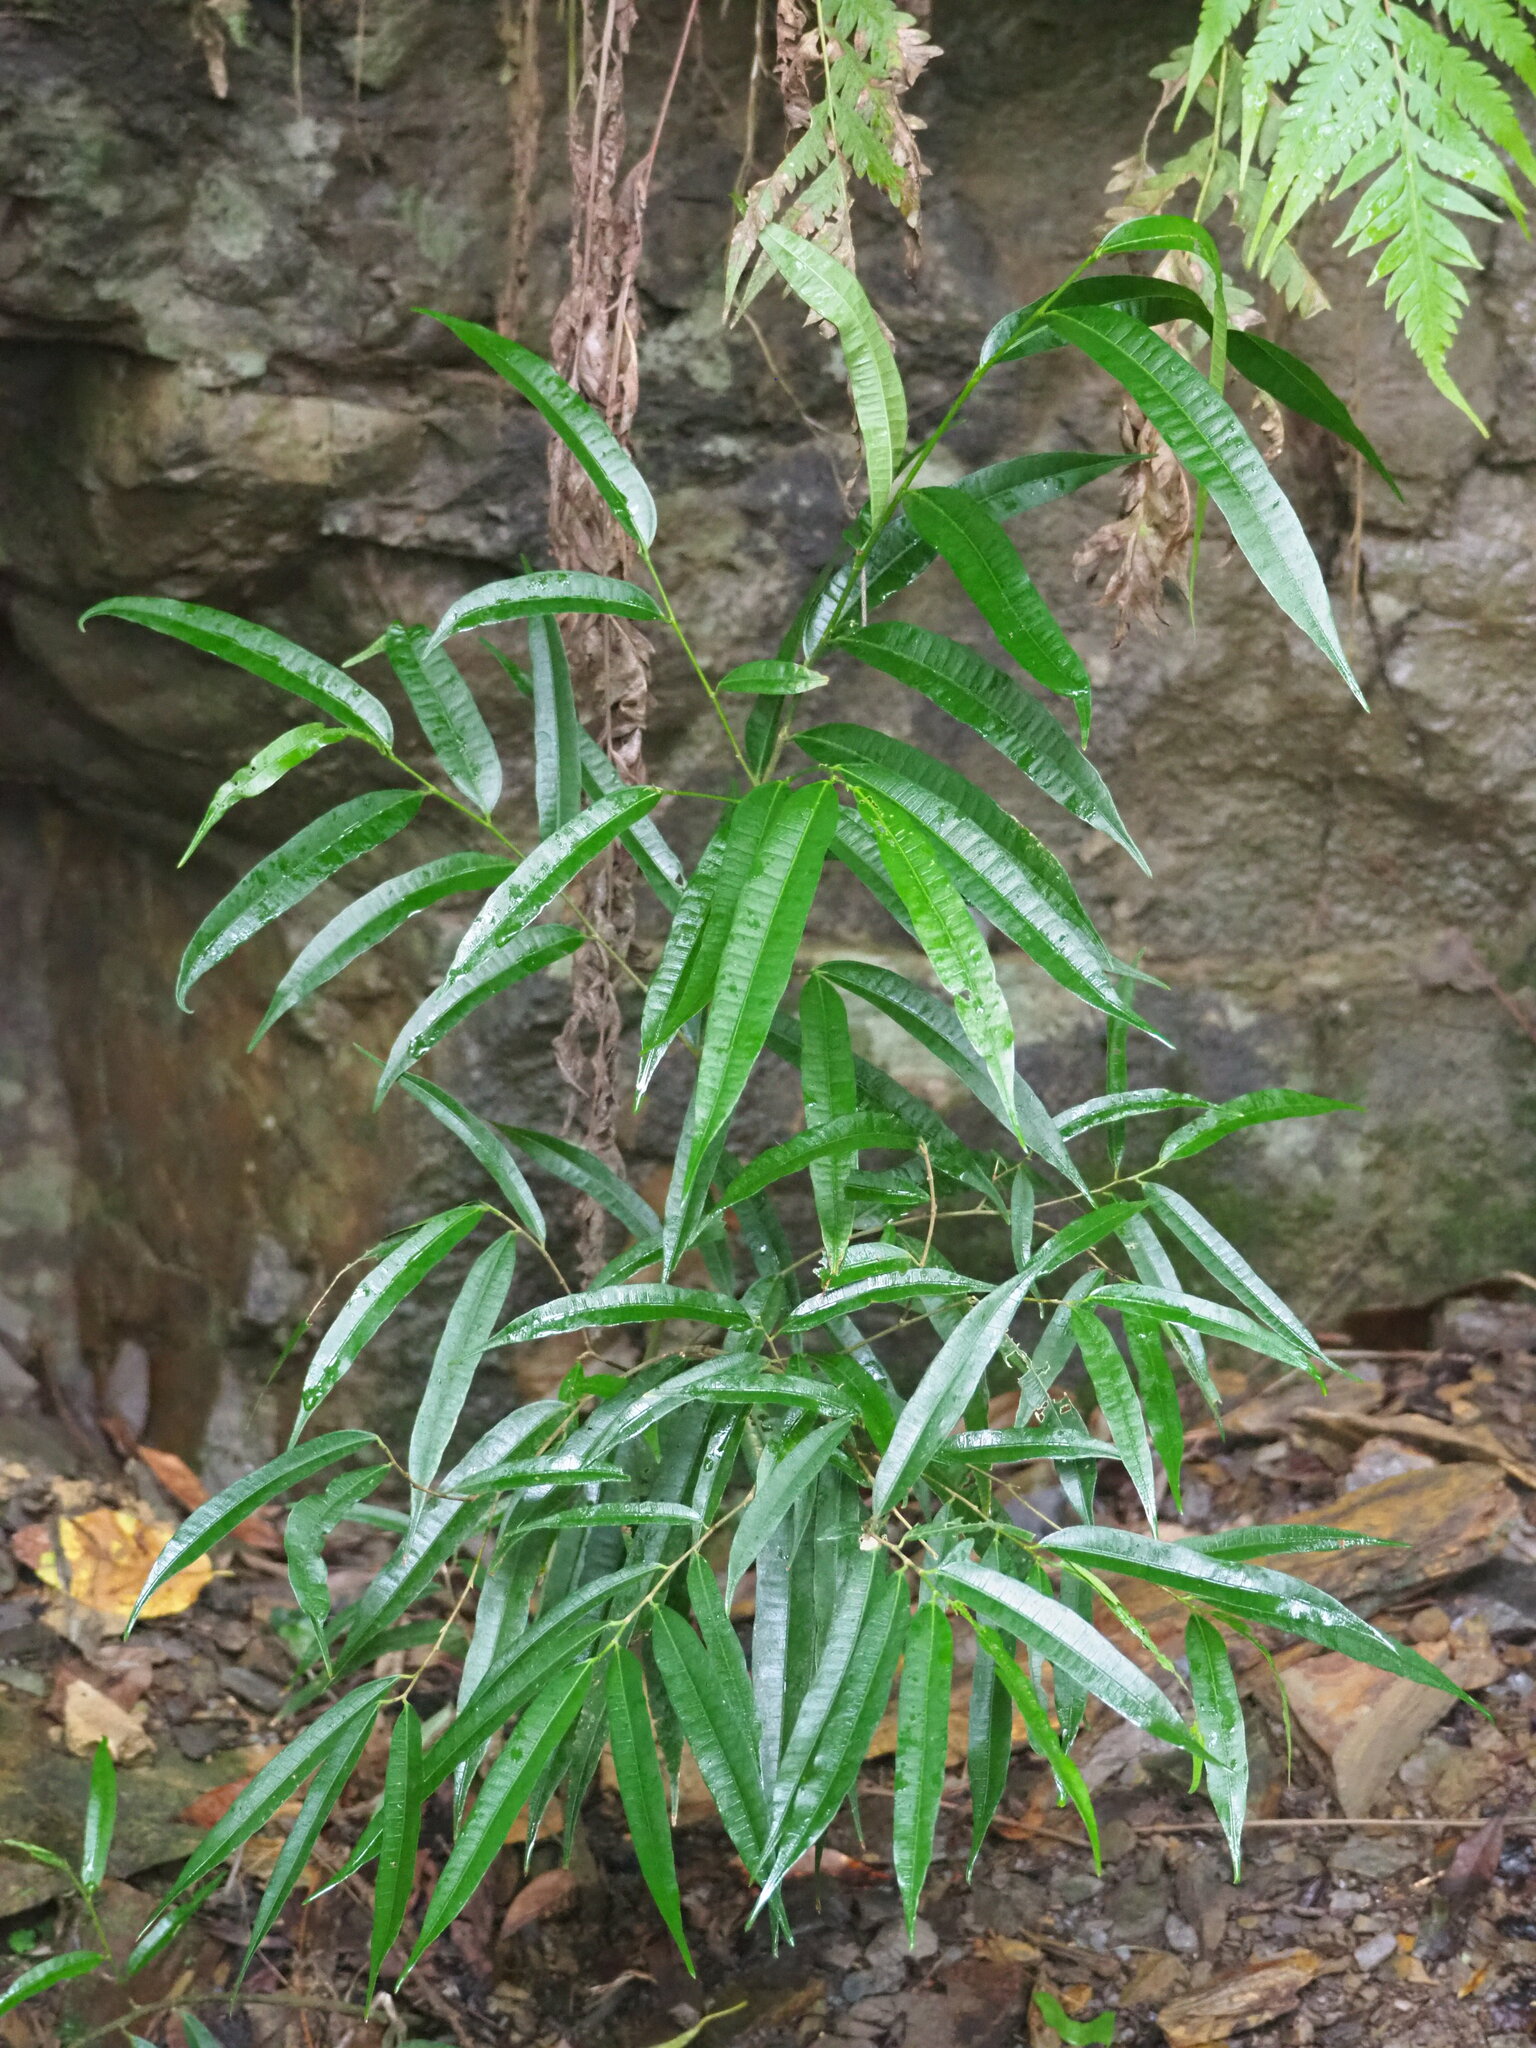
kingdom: Plantae
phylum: Tracheophyta
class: Magnoliopsida
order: Rosales
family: Moraceae
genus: Ficus
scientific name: Ficus ampelos
